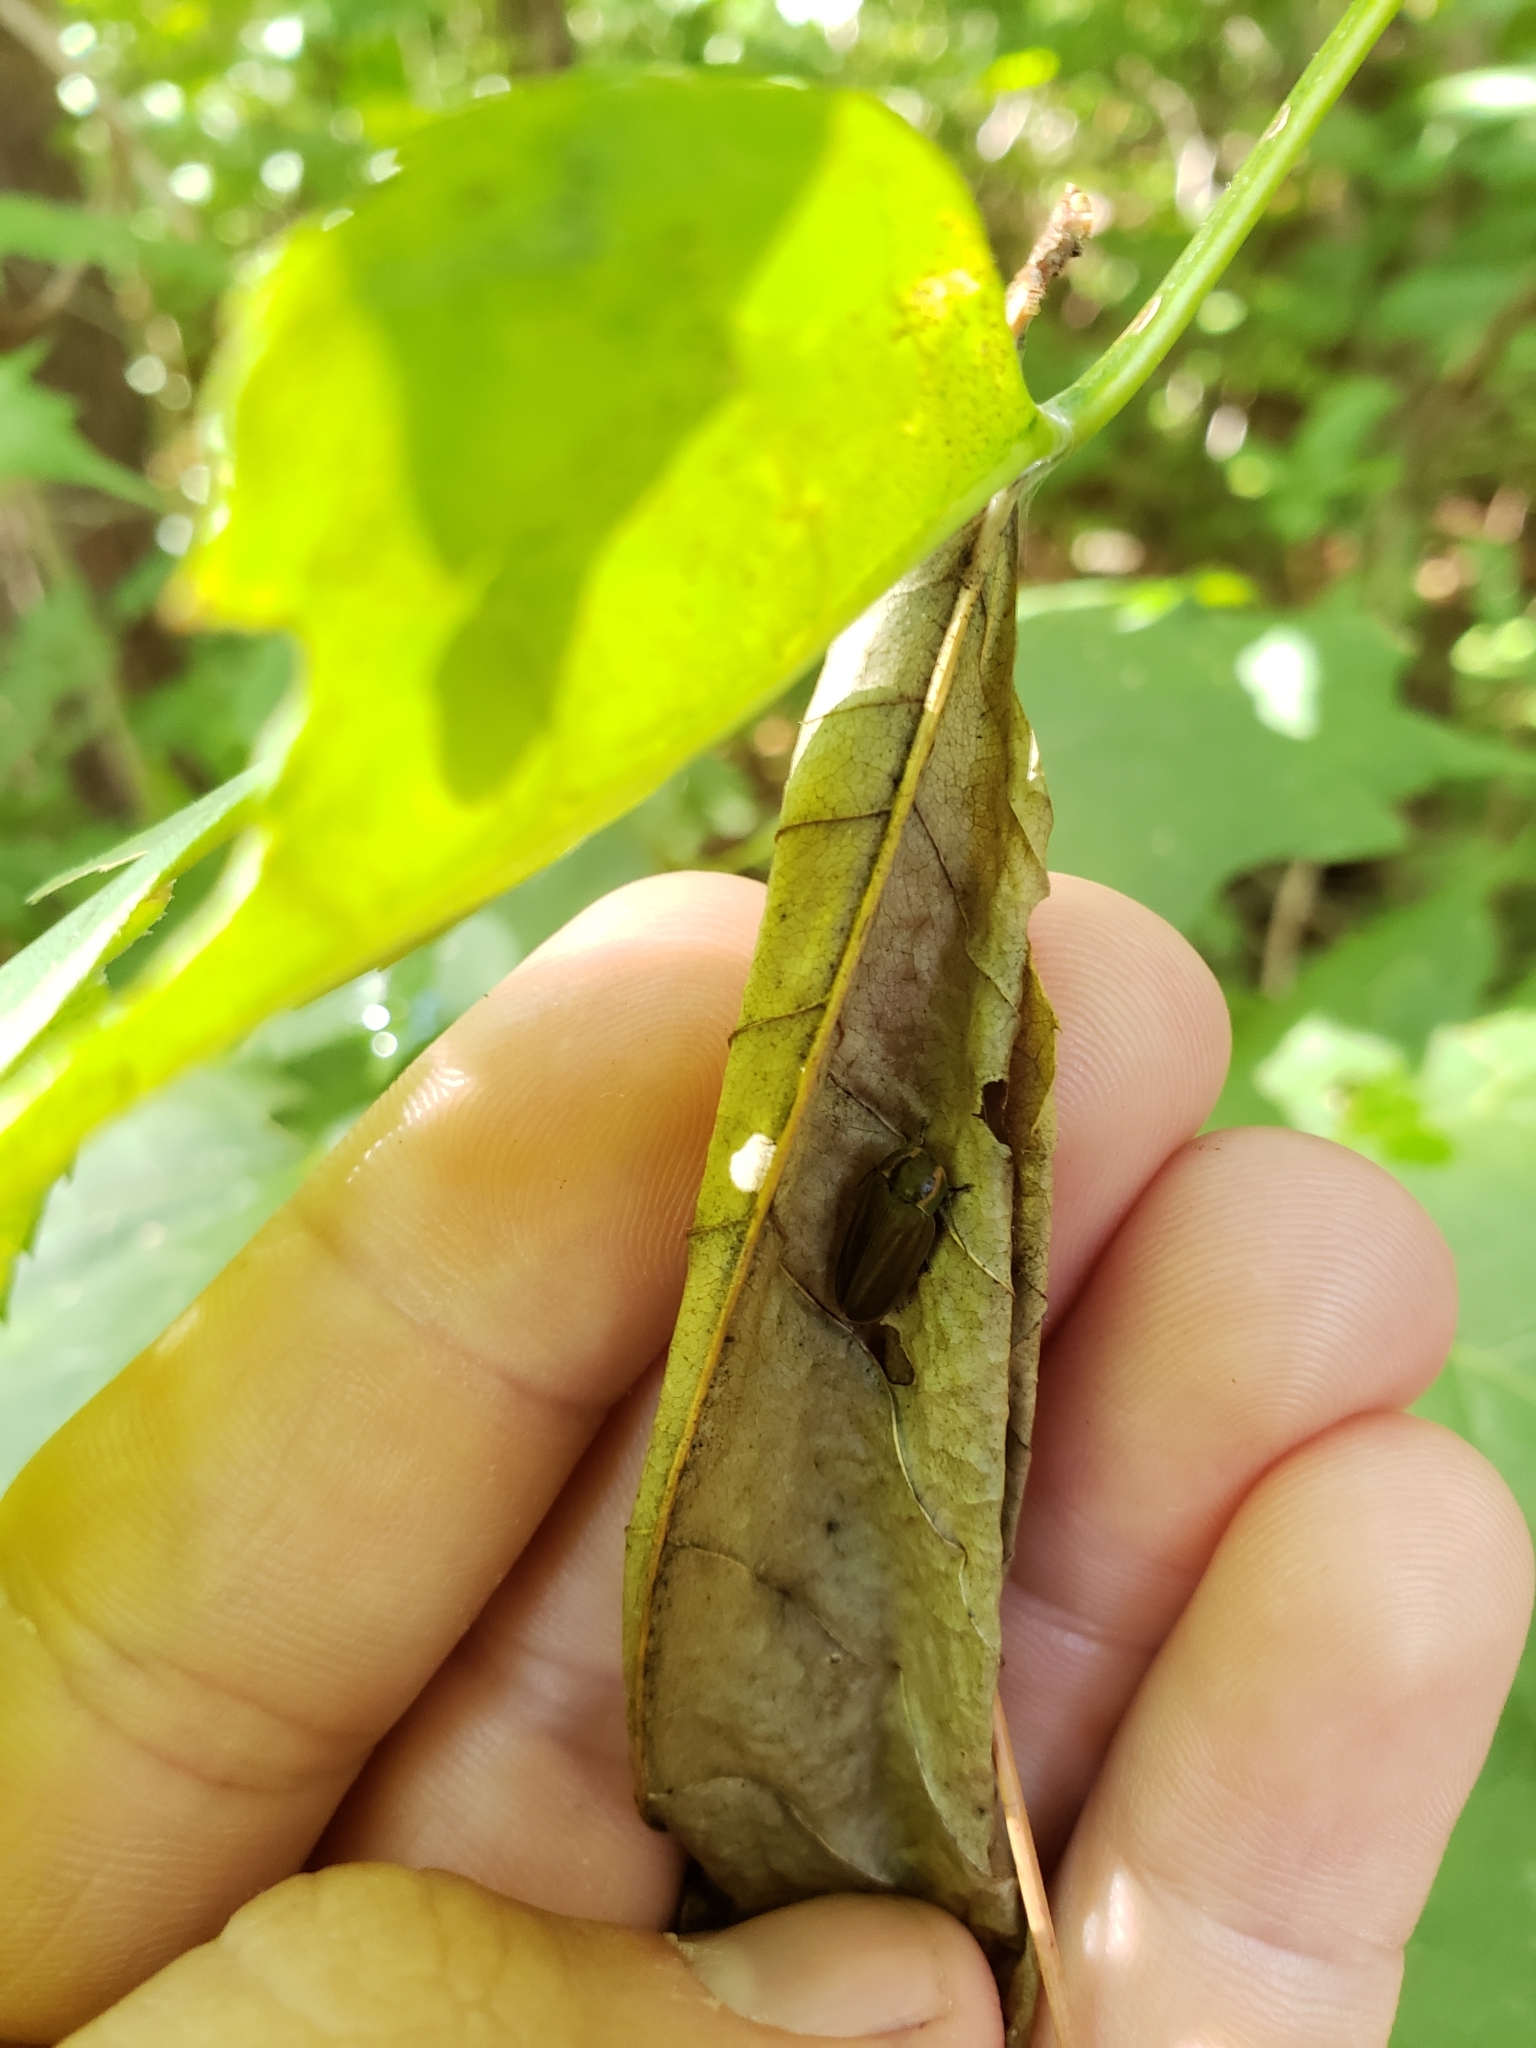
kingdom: Animalia
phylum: Arthropoda
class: Insecta
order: Coleoptera
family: Lampyridae
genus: Photinus
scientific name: Photinus corrusca
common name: Winter firefly
